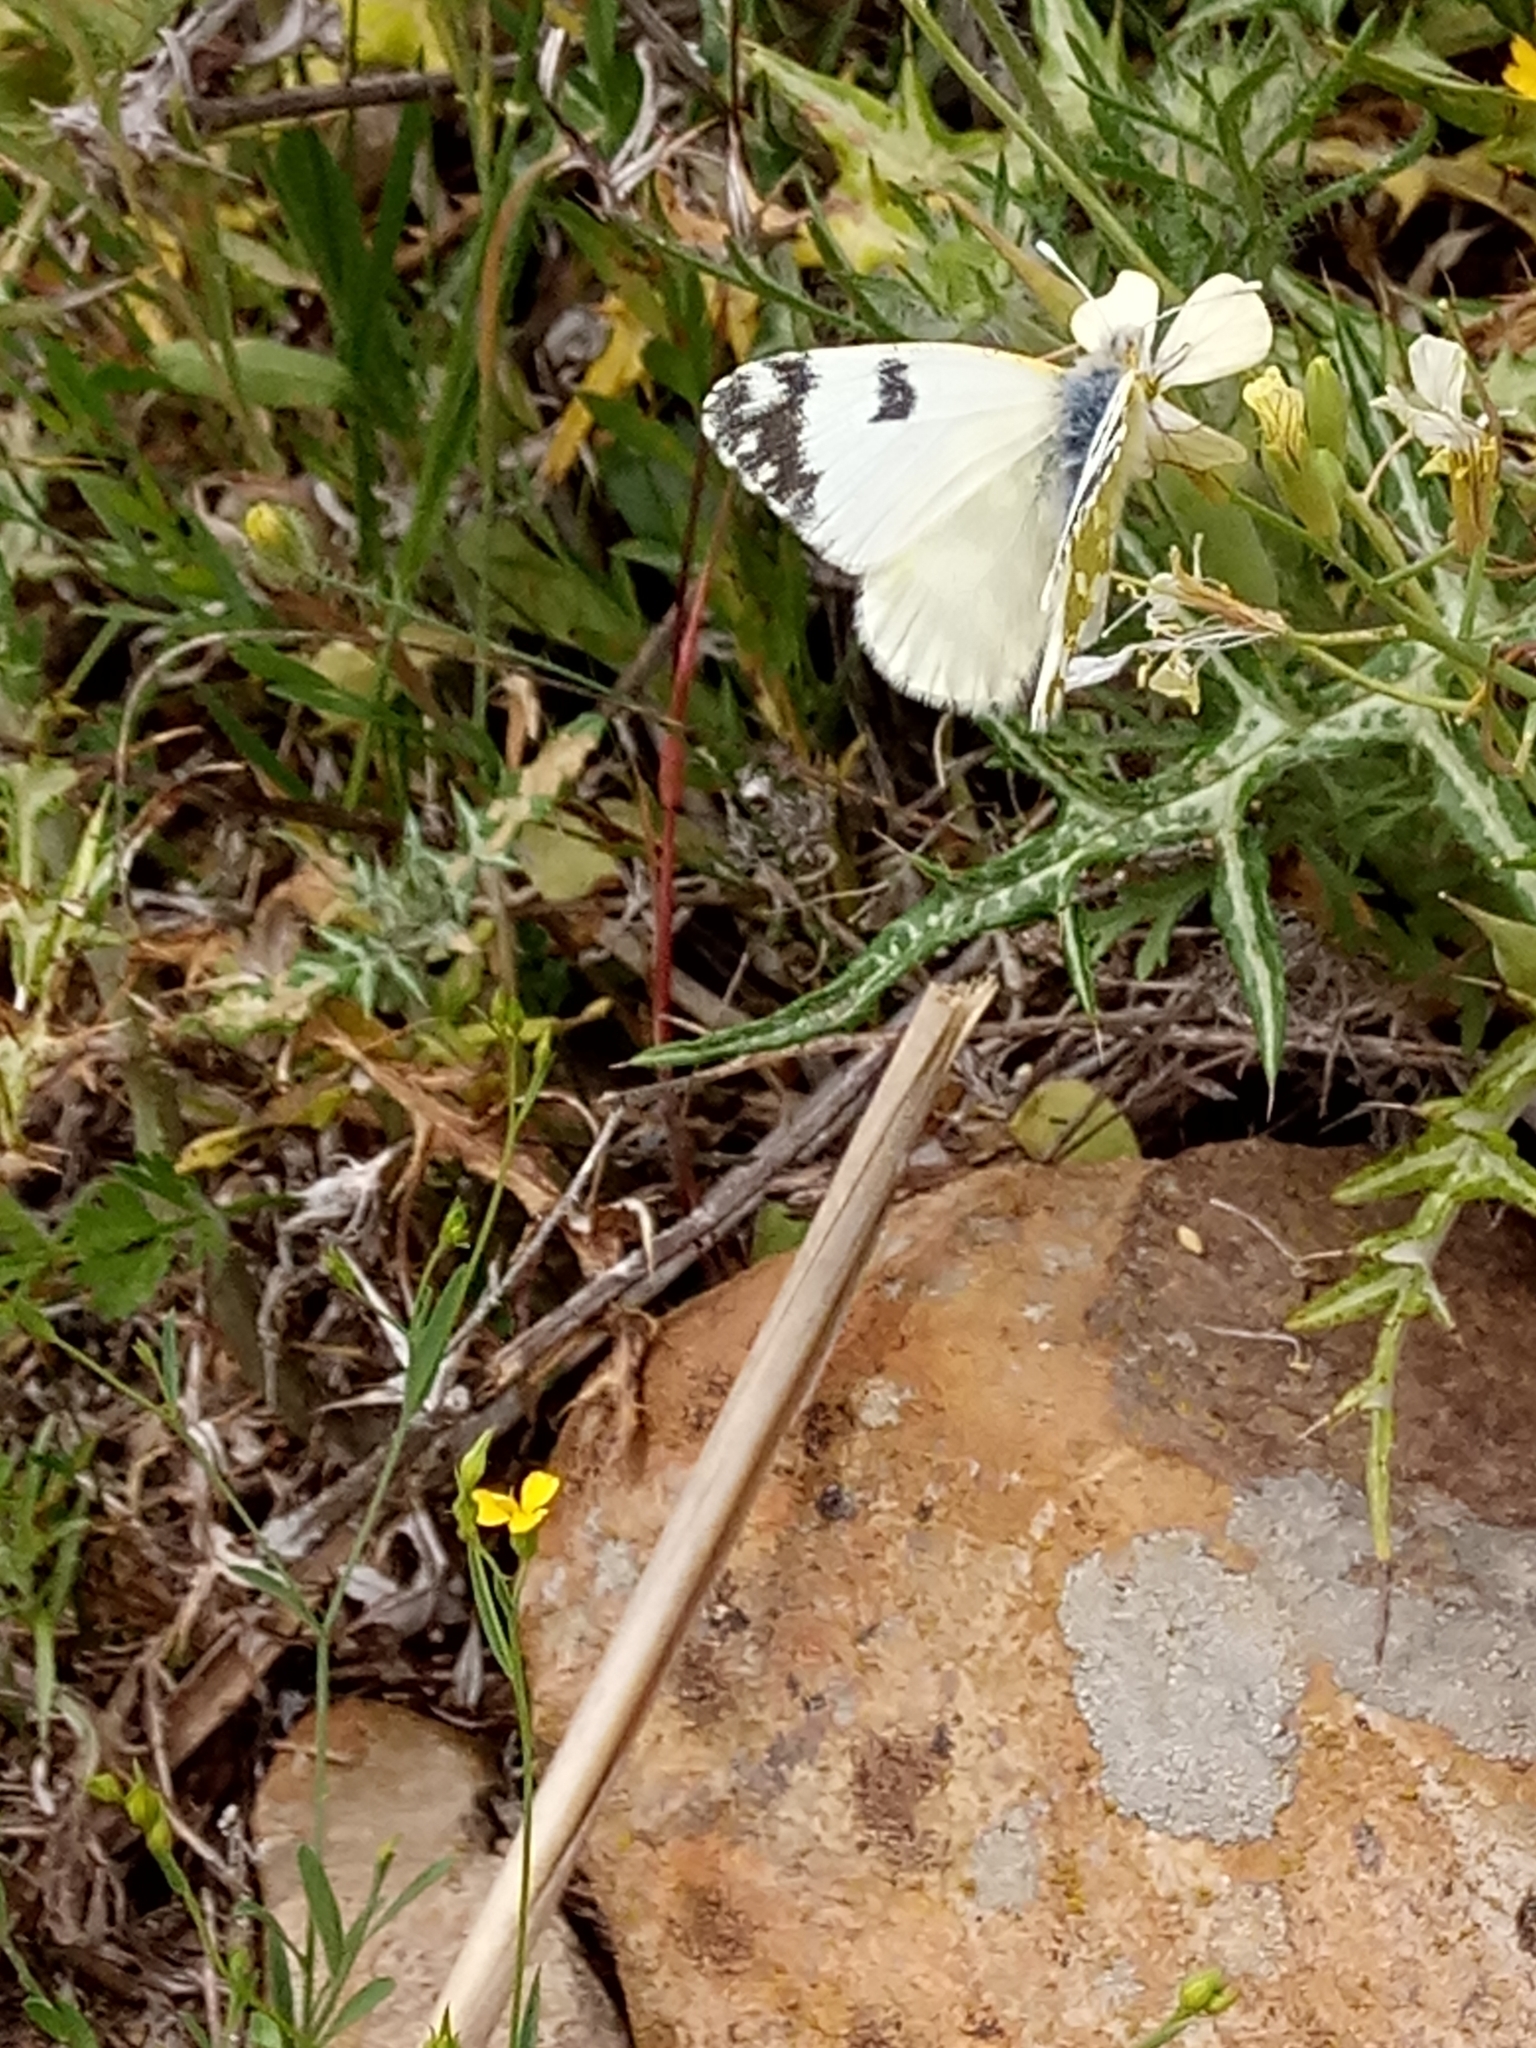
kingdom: Animalia
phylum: Arthropoda
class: Insecta
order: Lepidoptera
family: Pieridae
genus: Euchloe
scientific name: Euchloe crameri
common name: Western dappled white
